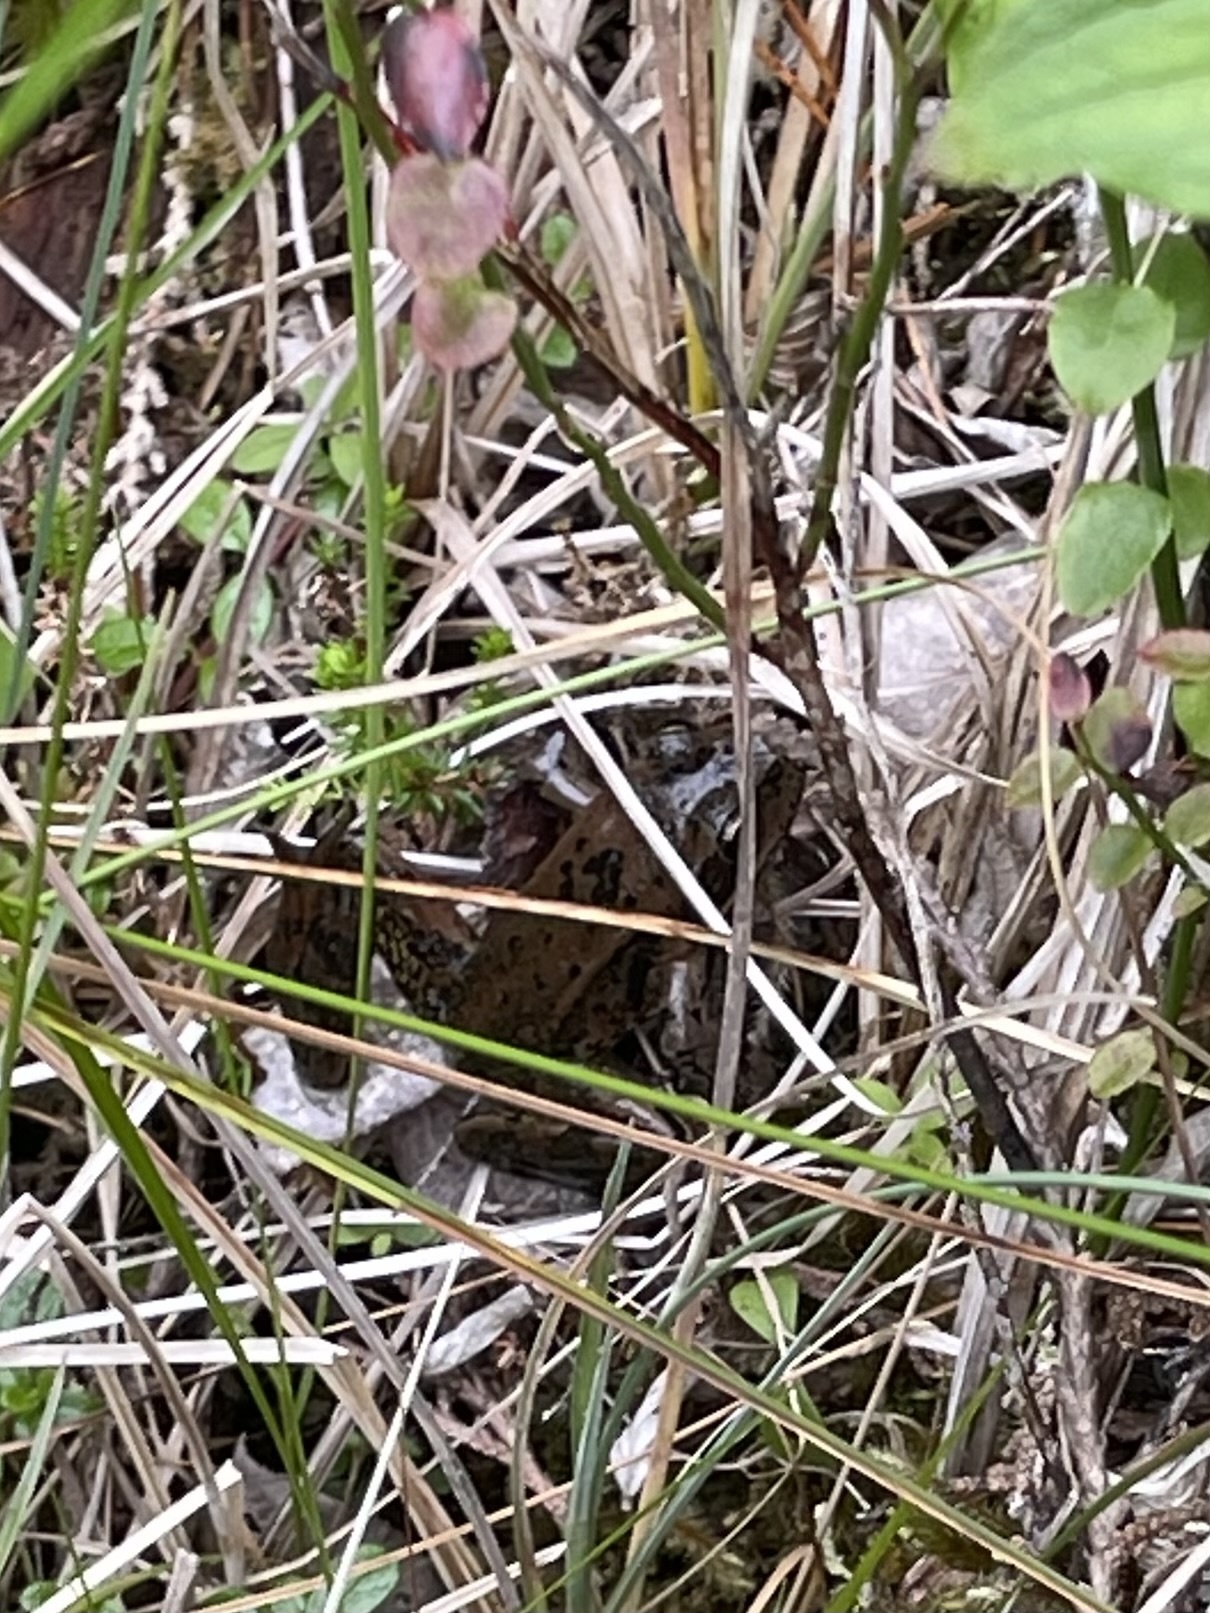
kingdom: Animalia
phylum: Chordata
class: Amphibia
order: Anura
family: Ranidae
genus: Rana
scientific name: Rana aurora
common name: Red-legged frog
